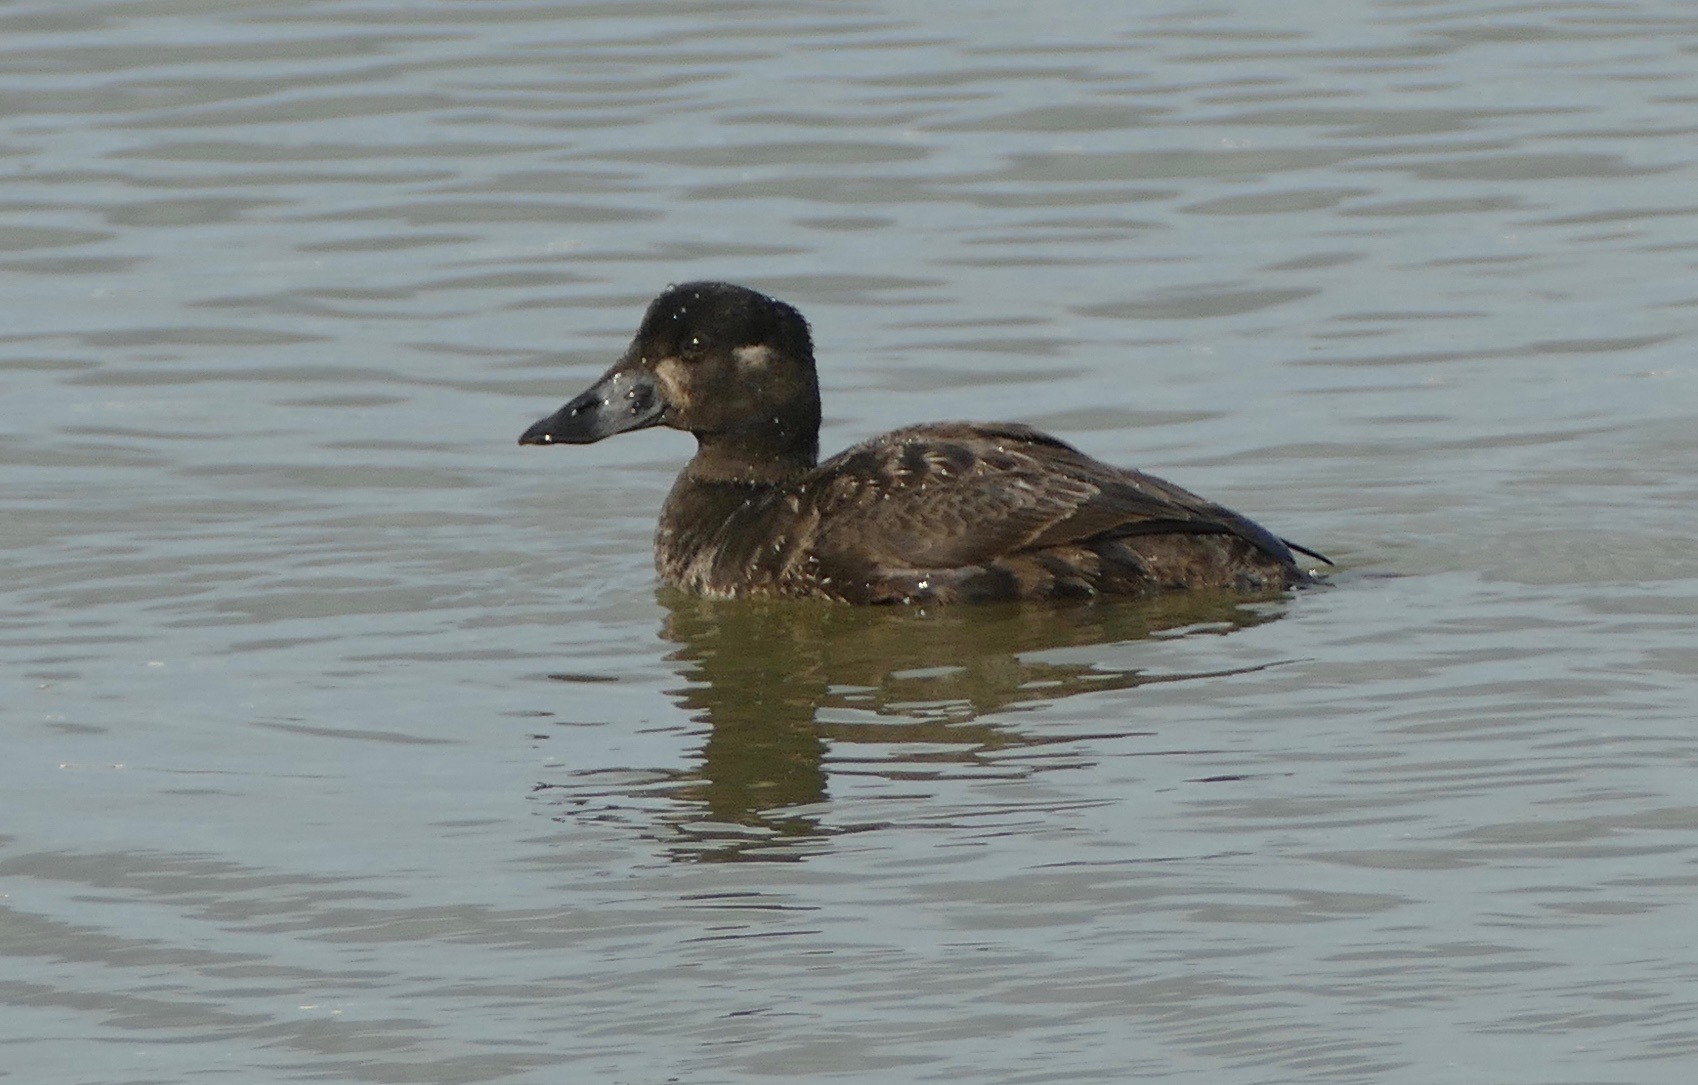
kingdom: Animalia
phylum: Chordata
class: Aves
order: Anseriformes
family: Anatidae
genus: Melanitta
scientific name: Melanitta perspicillata
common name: Surf scoter
